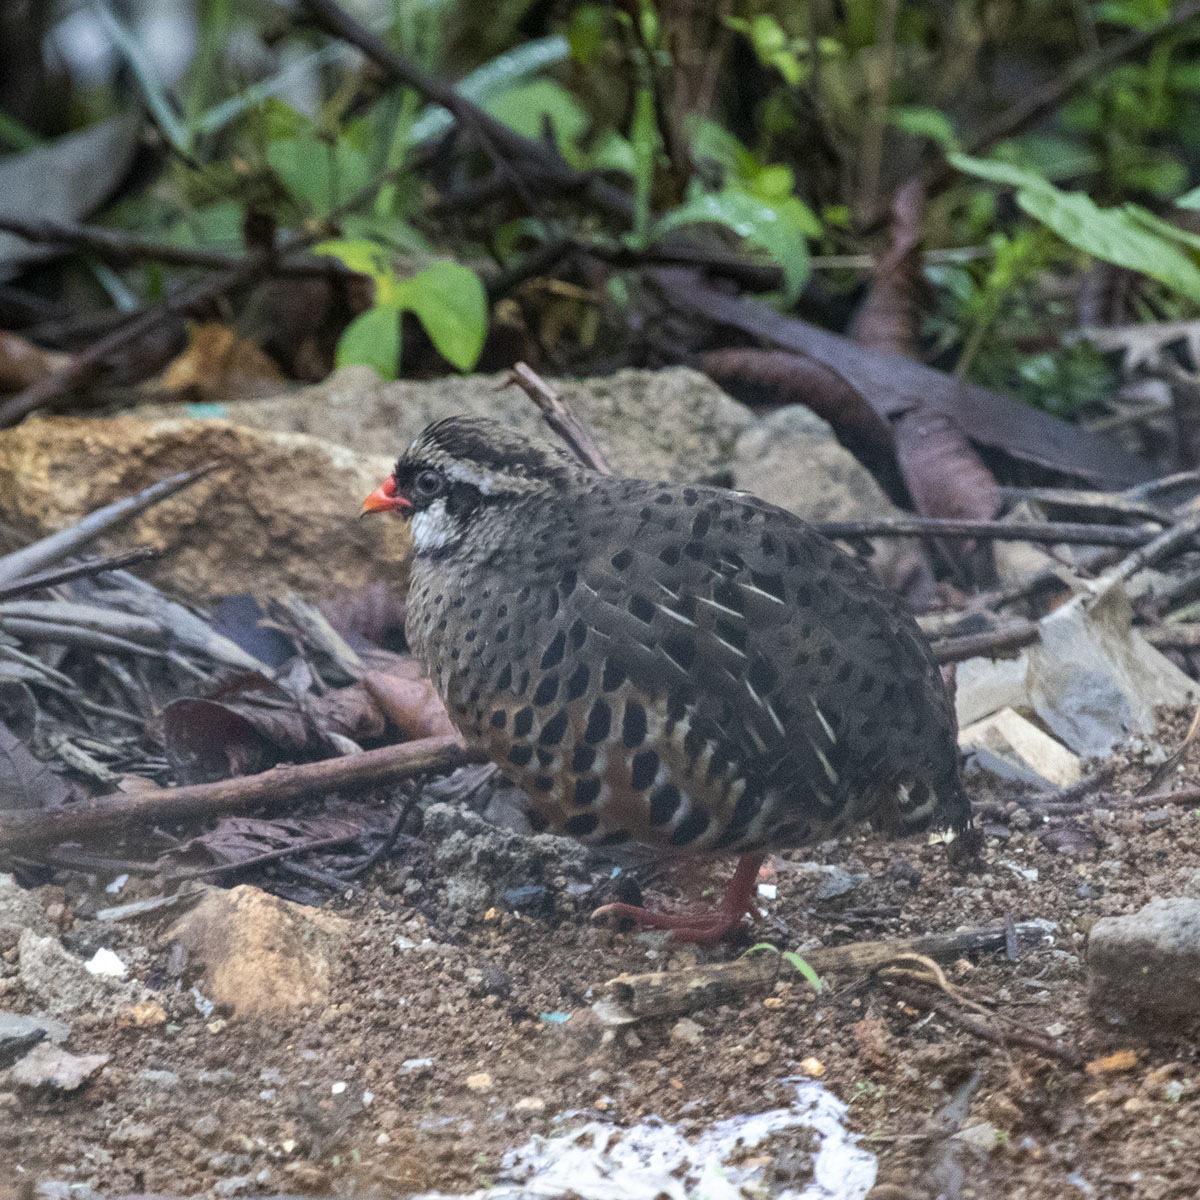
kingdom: Animalia
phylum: Chordata
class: Aves
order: Galliformes
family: Phasianidae
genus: Perdicula
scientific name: Perdicula erythrorhyncha
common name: Painted bush-quail
